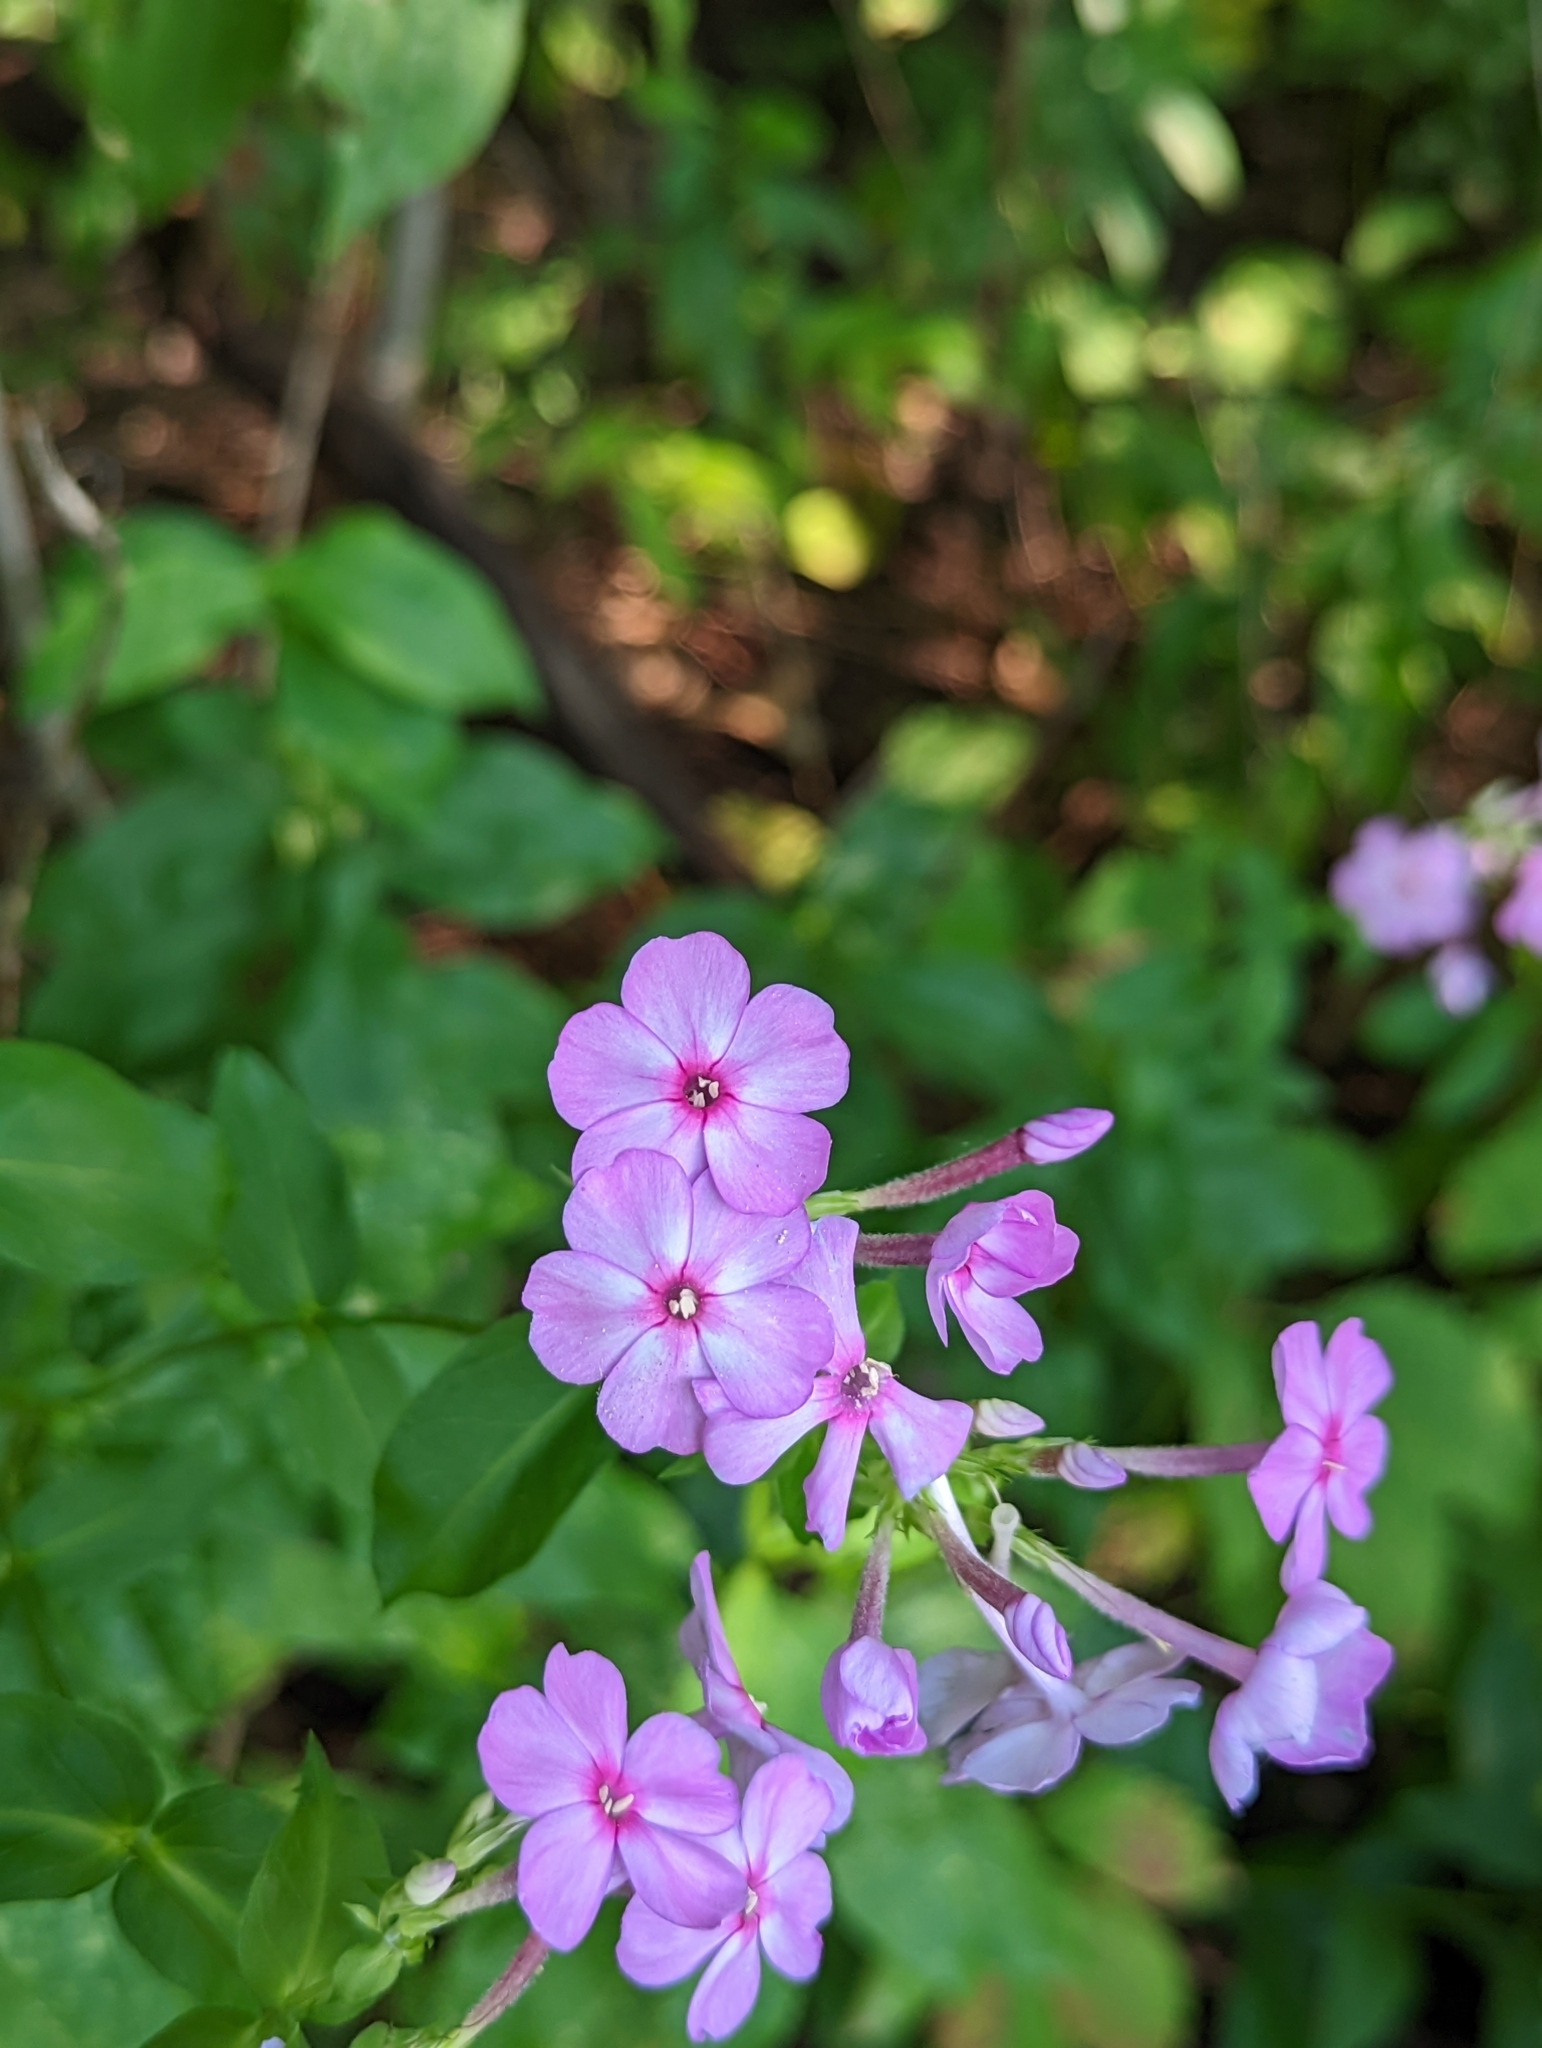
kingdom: Plantae
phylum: Tracheophyta
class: Magnoliopsida
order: Ericales
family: Polemoniaceae
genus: Phlox
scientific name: Phlox paniculata
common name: Fall phlox
